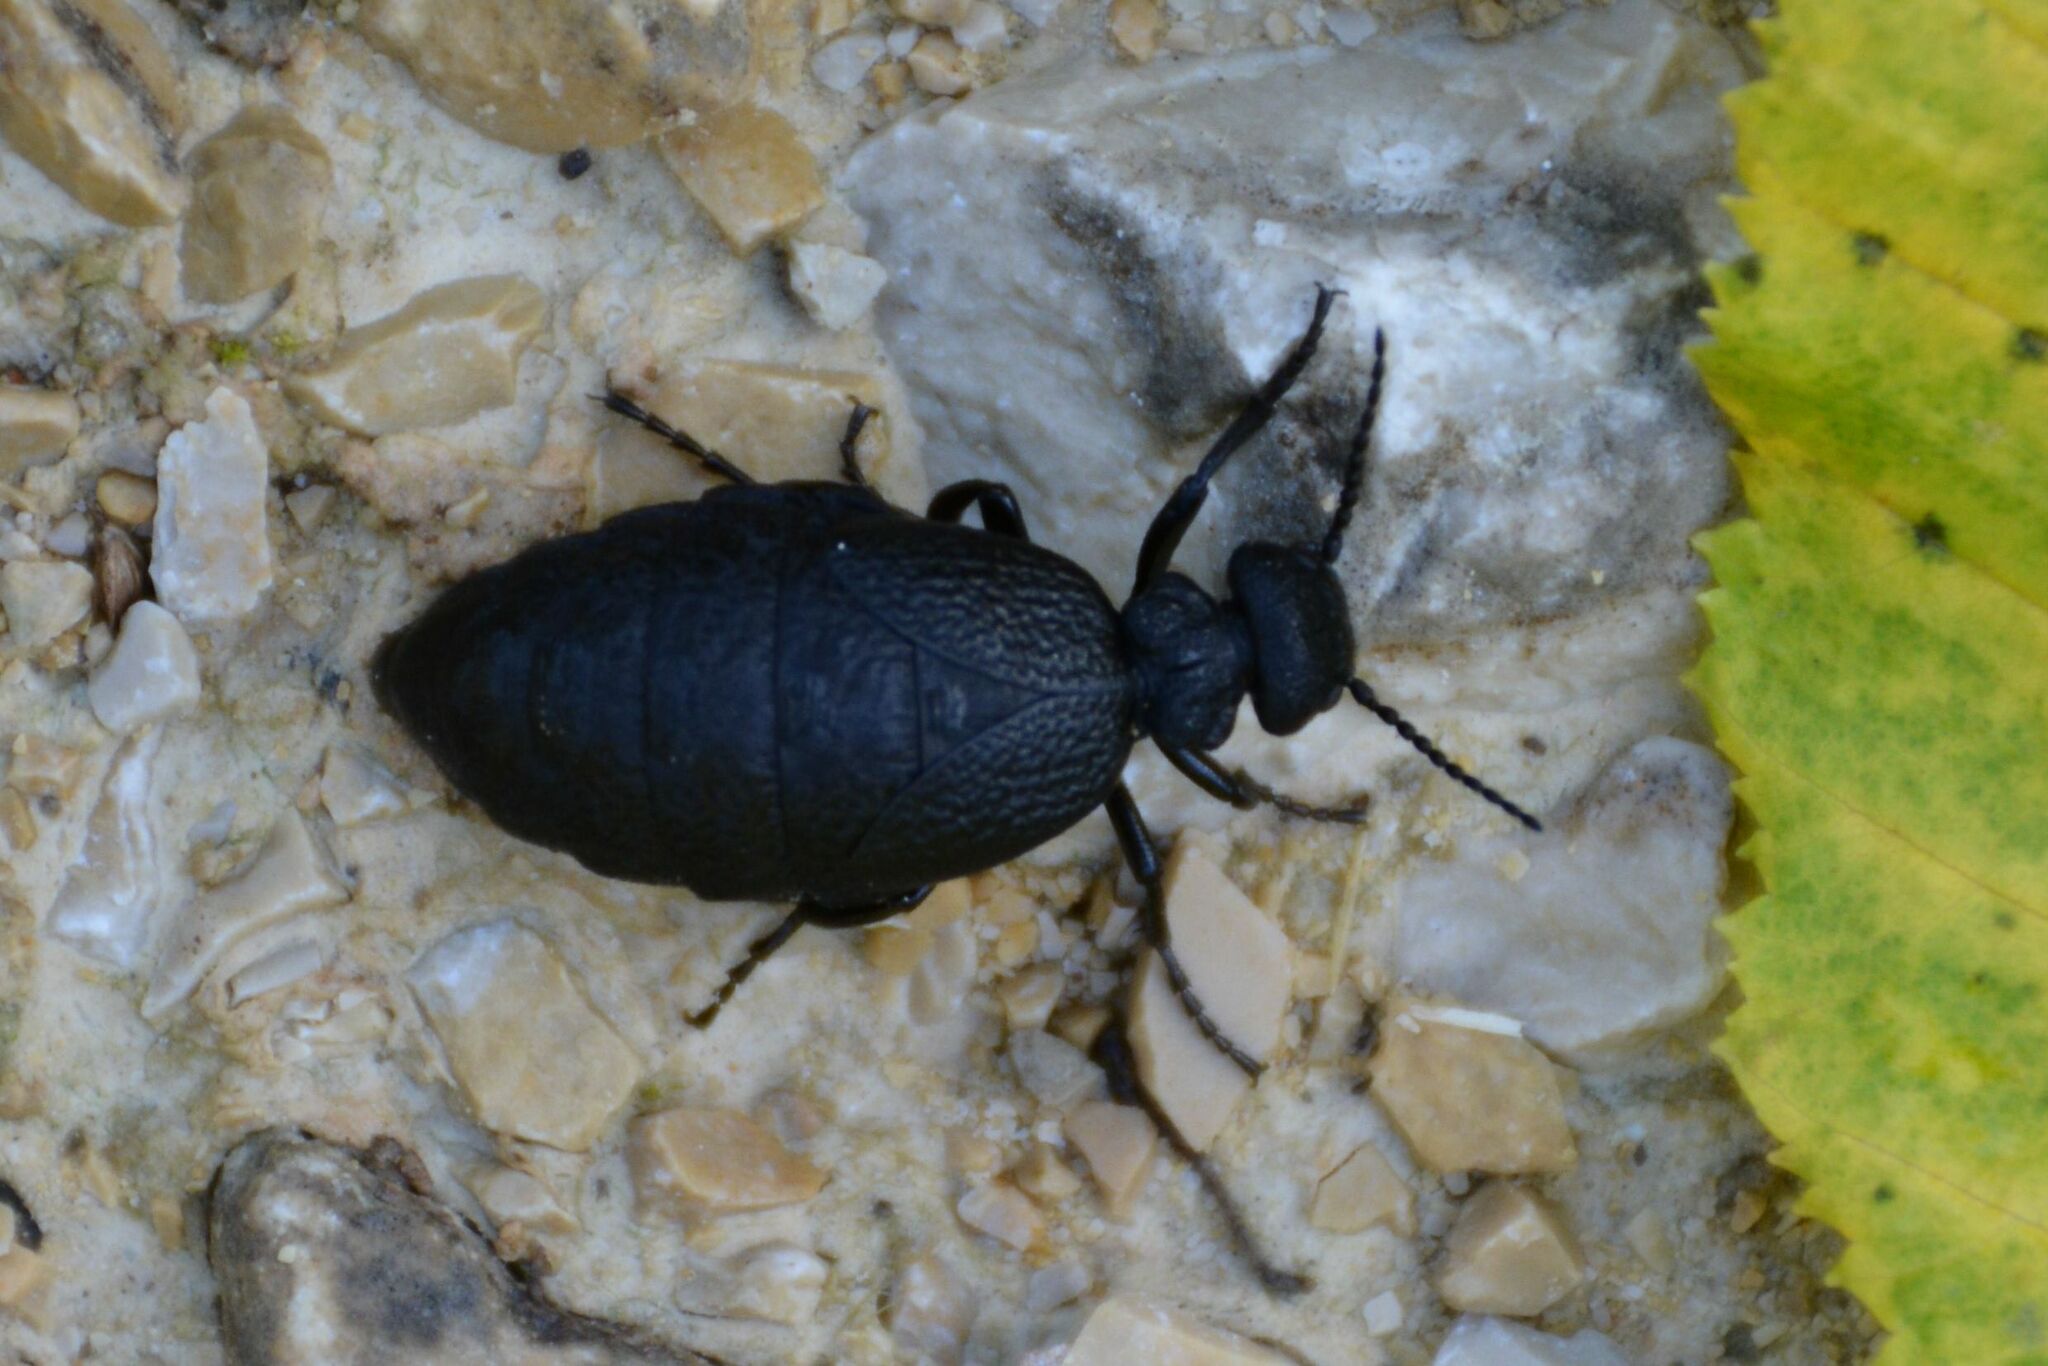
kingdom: Animalia
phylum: Arthropoda
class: Insecta
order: Coleoptera
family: Meloidae
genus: Meloe
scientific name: Meloe rugosus
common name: Rugged oil-beetle
